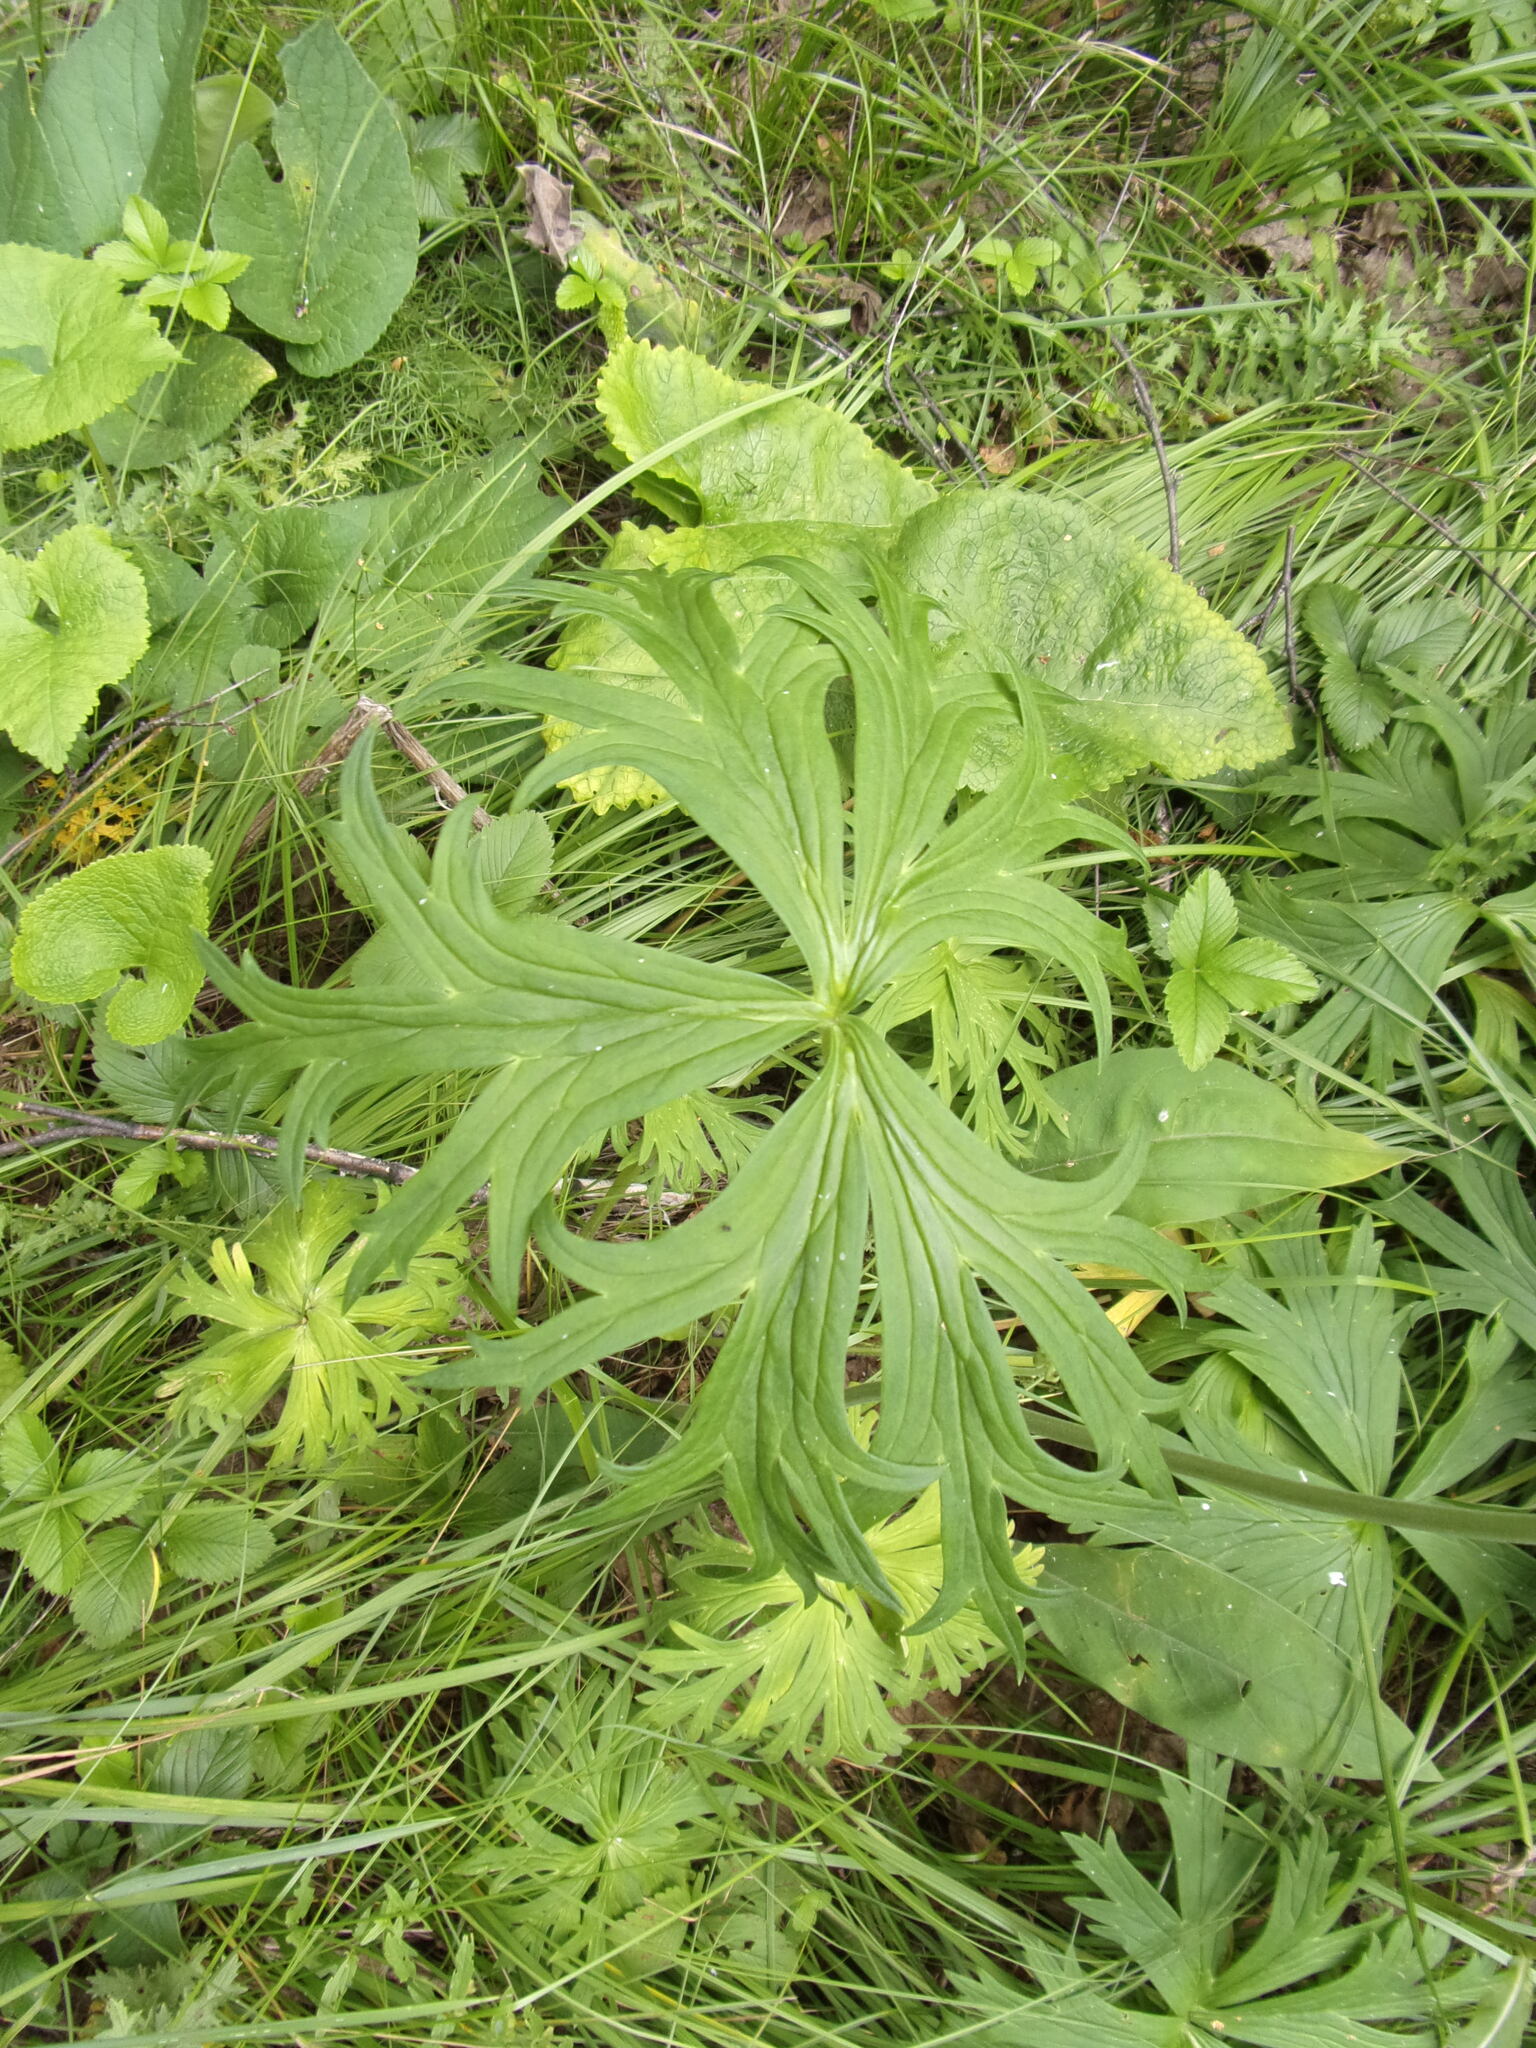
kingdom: Plantae
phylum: Tracheophyta
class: Magnoliopsida
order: Ranunculales
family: Ranunculaceae
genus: Aconitum
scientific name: Aconitum barbatum
